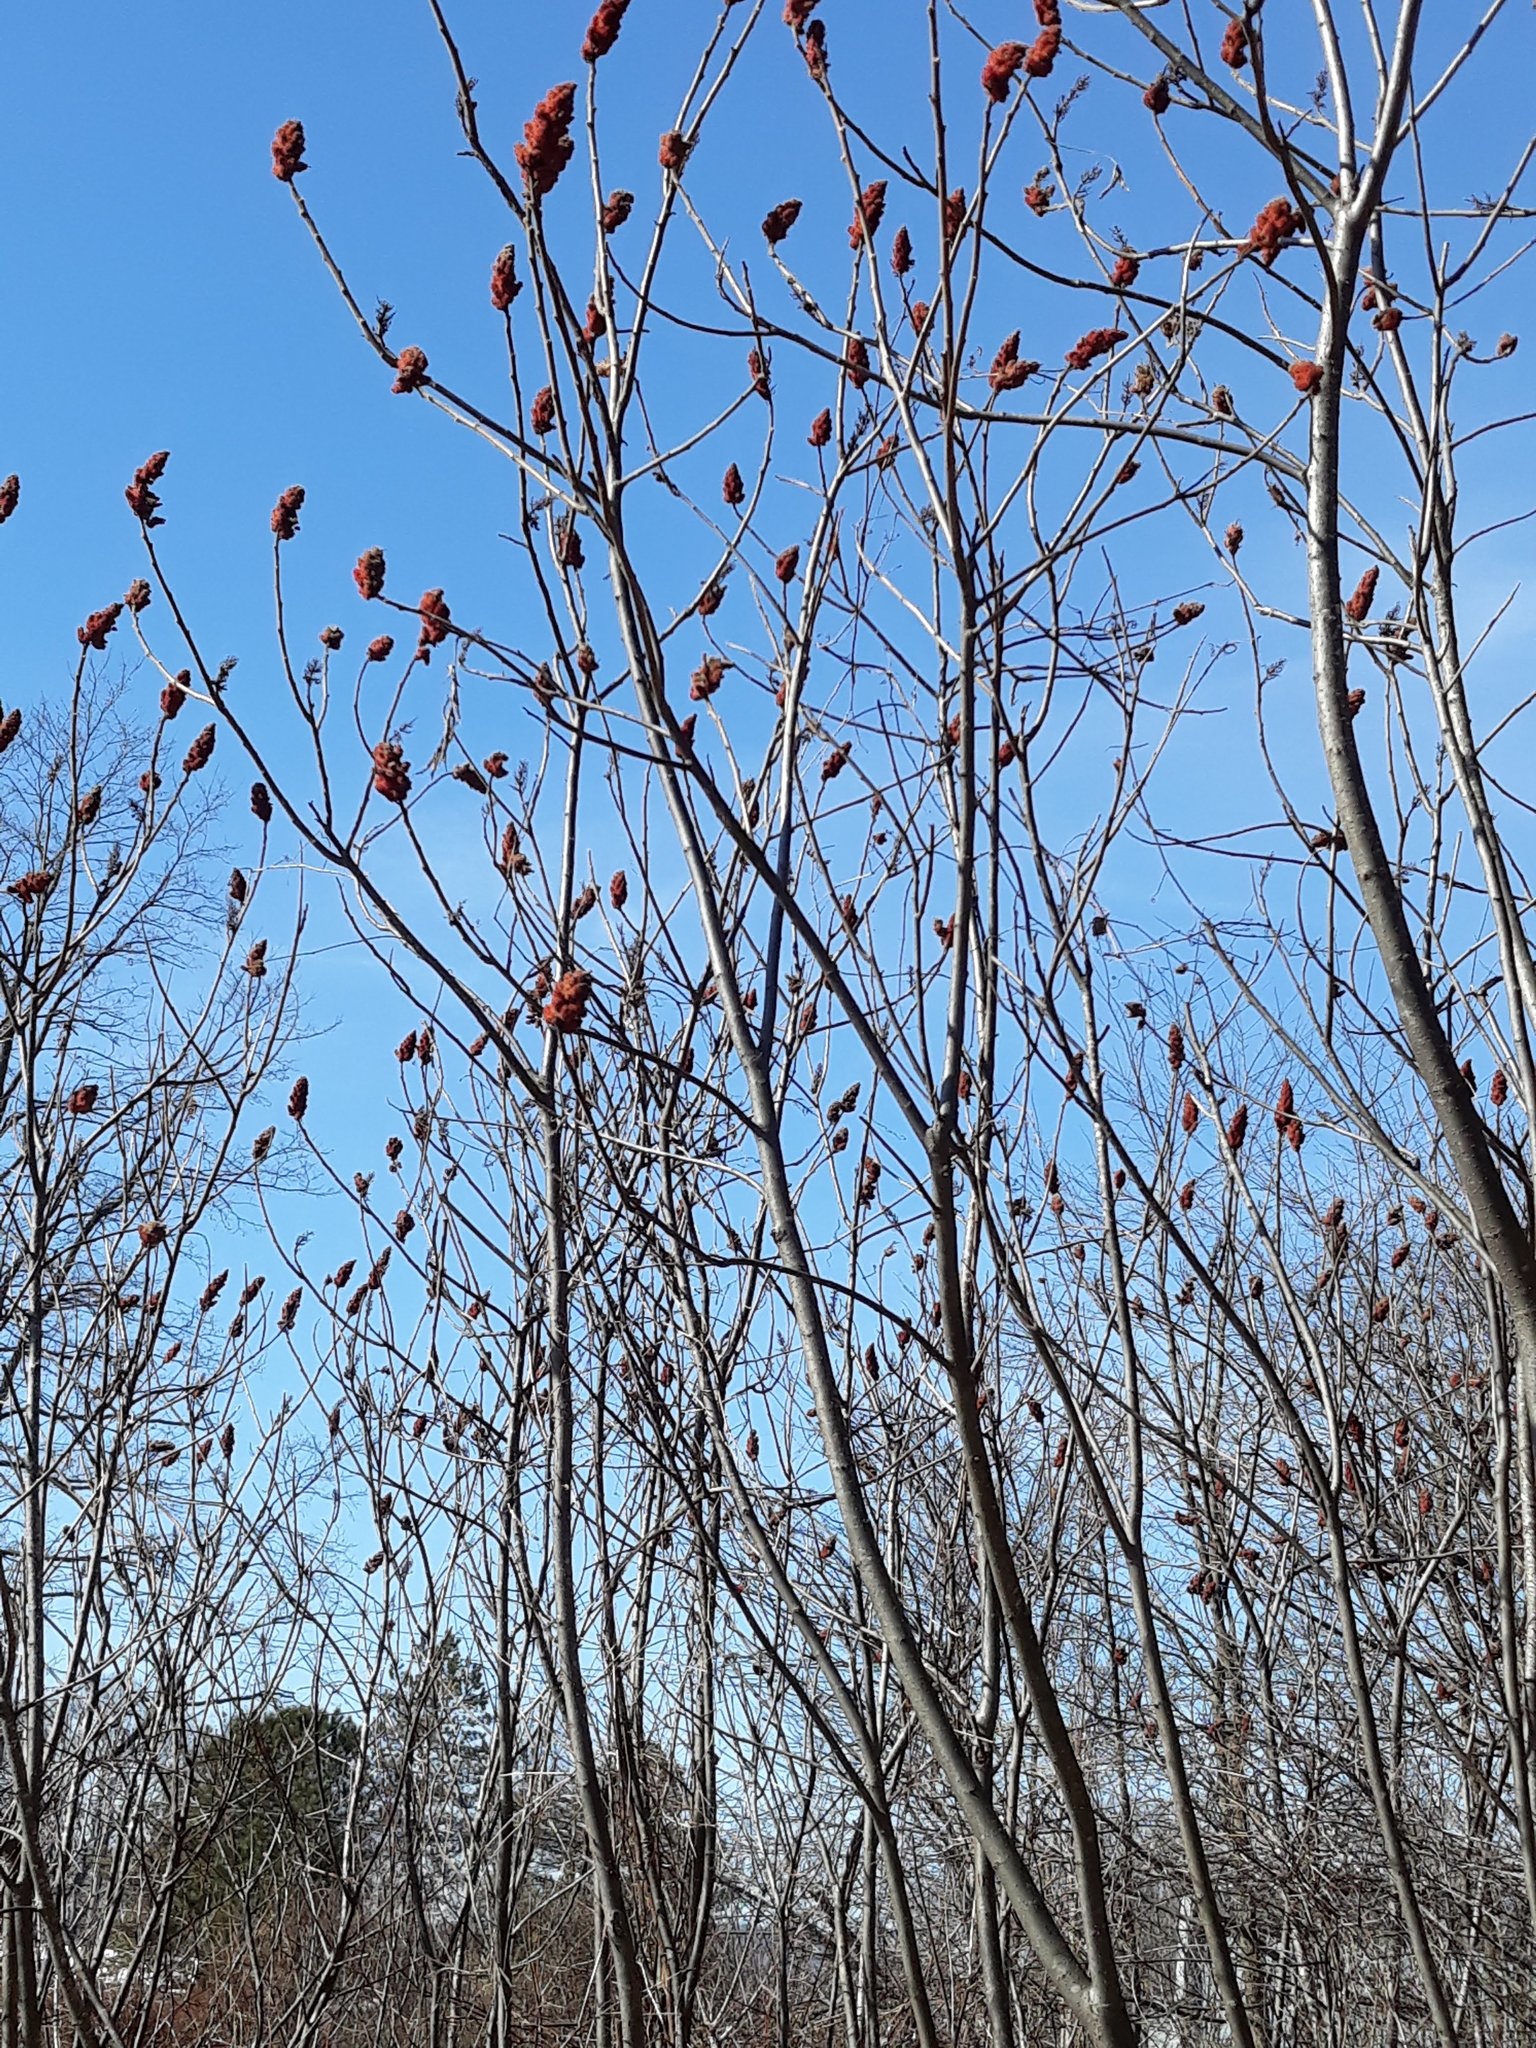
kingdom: Plantae
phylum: Tracheophyta
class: Magnoliopsida
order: Sapindales
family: Anacardiaceae
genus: Rhus
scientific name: Rhus typhina
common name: Staghorn sumac
